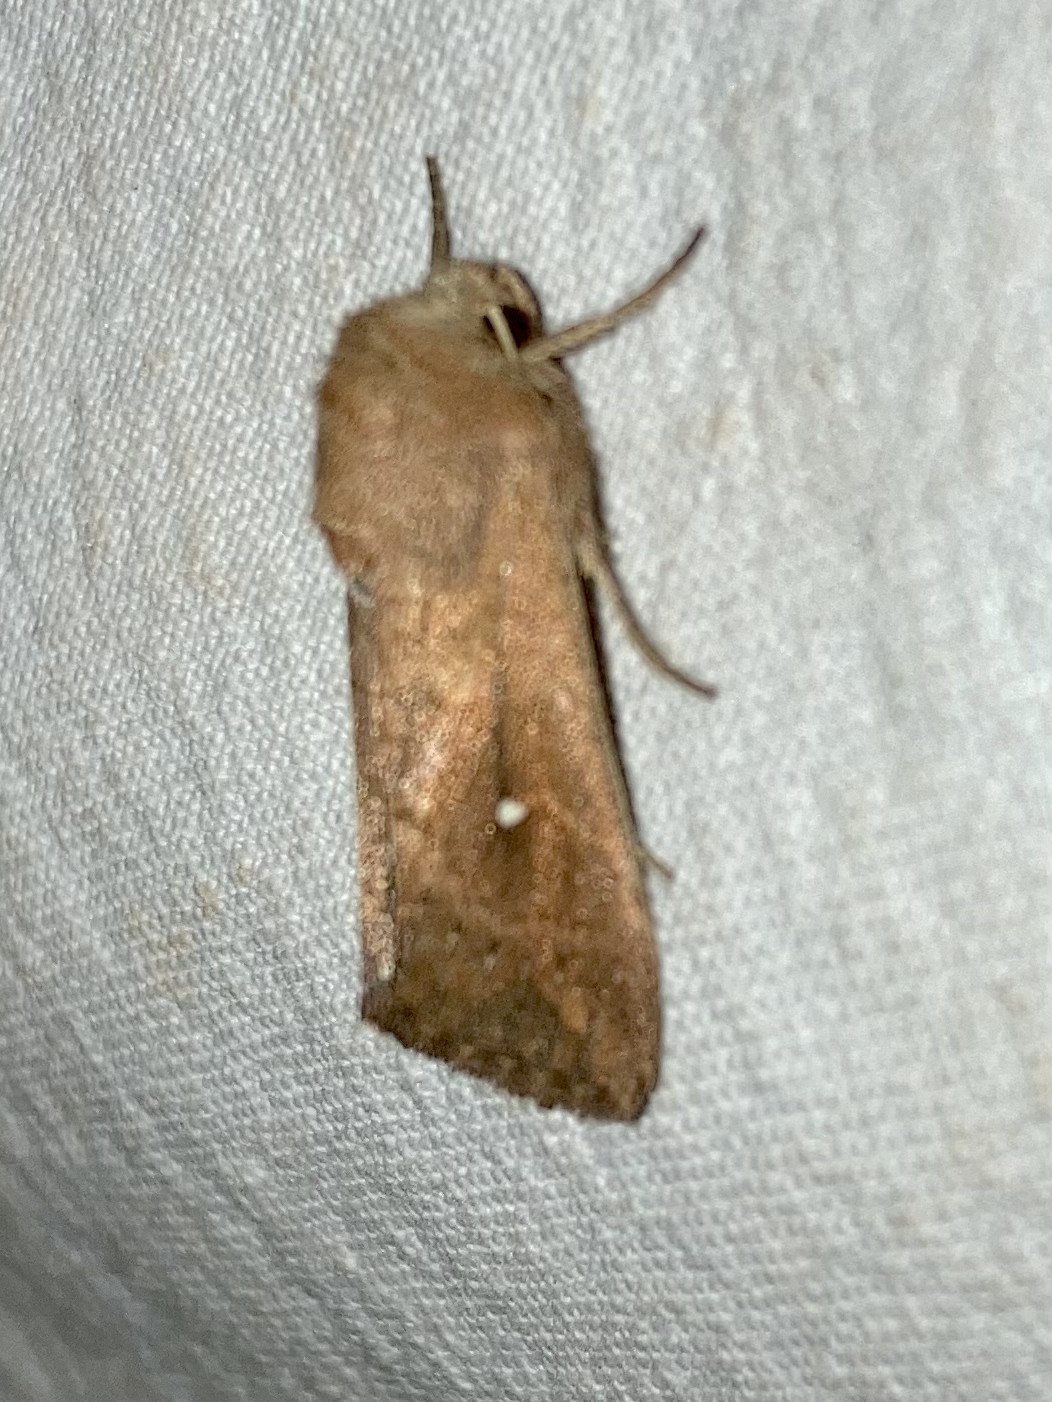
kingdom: Animalia
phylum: Arthropoda
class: Insecta
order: Lepidoptera
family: Noctuidae
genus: Mythimna
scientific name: Mythimna albipuncta
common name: White-point
